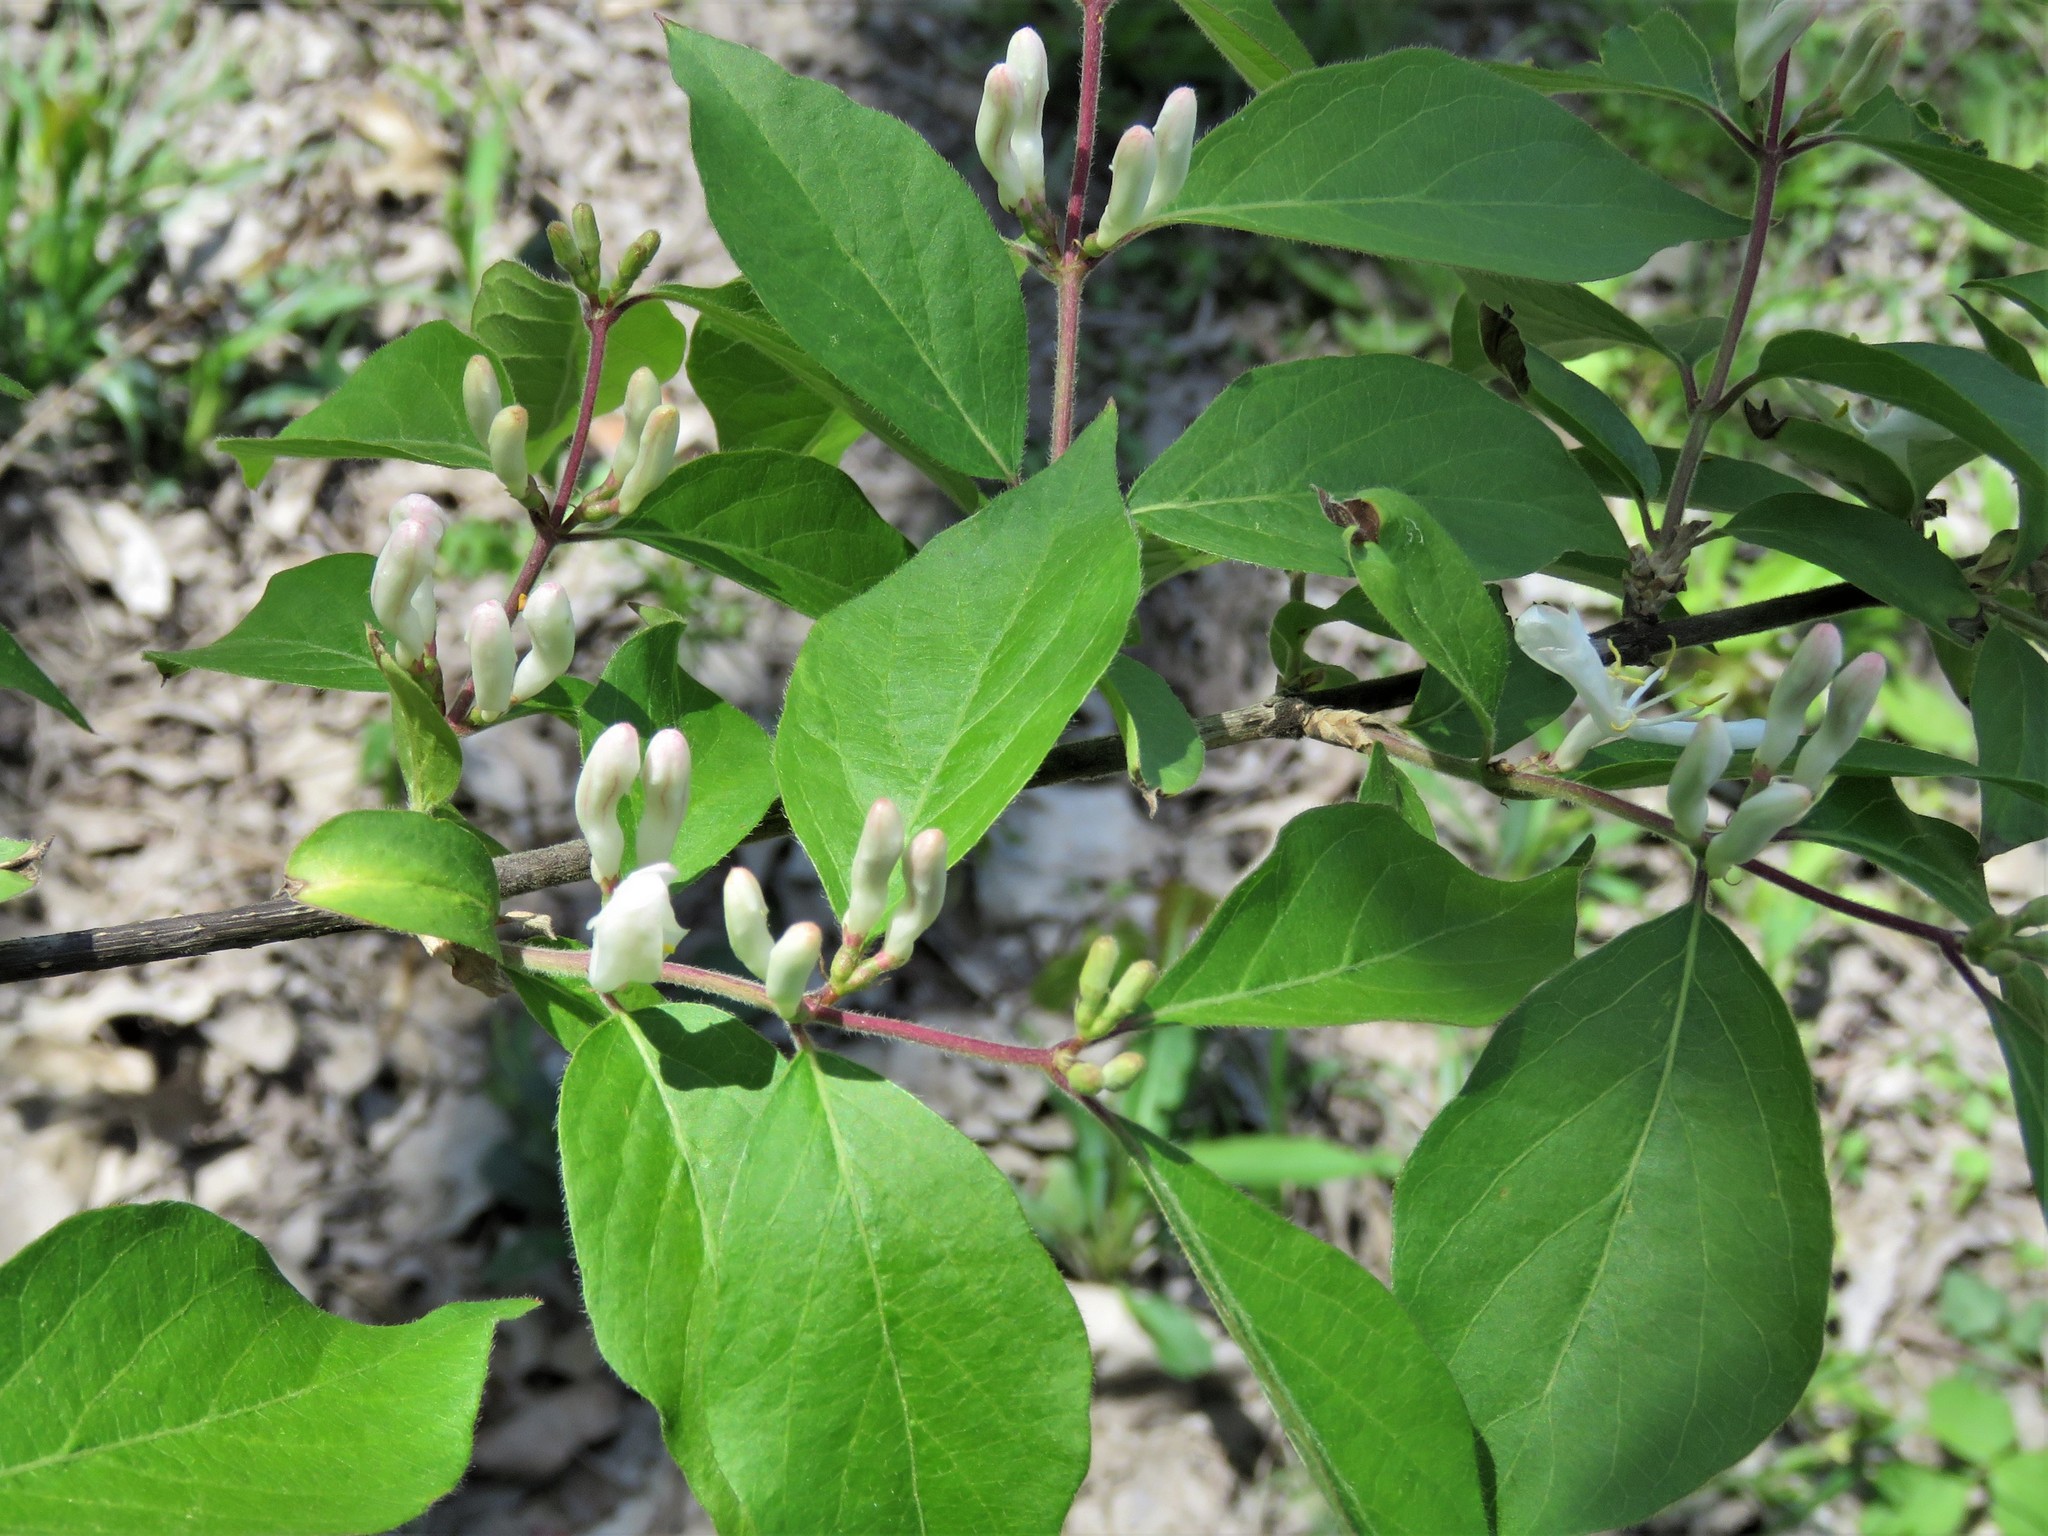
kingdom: Plantae
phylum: Tracheophyta
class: Magnoliopsida
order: Dipsacales
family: Caprifoliaceae
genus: Lonicera
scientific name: Lonicera maackii
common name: Amur honeysuckle
